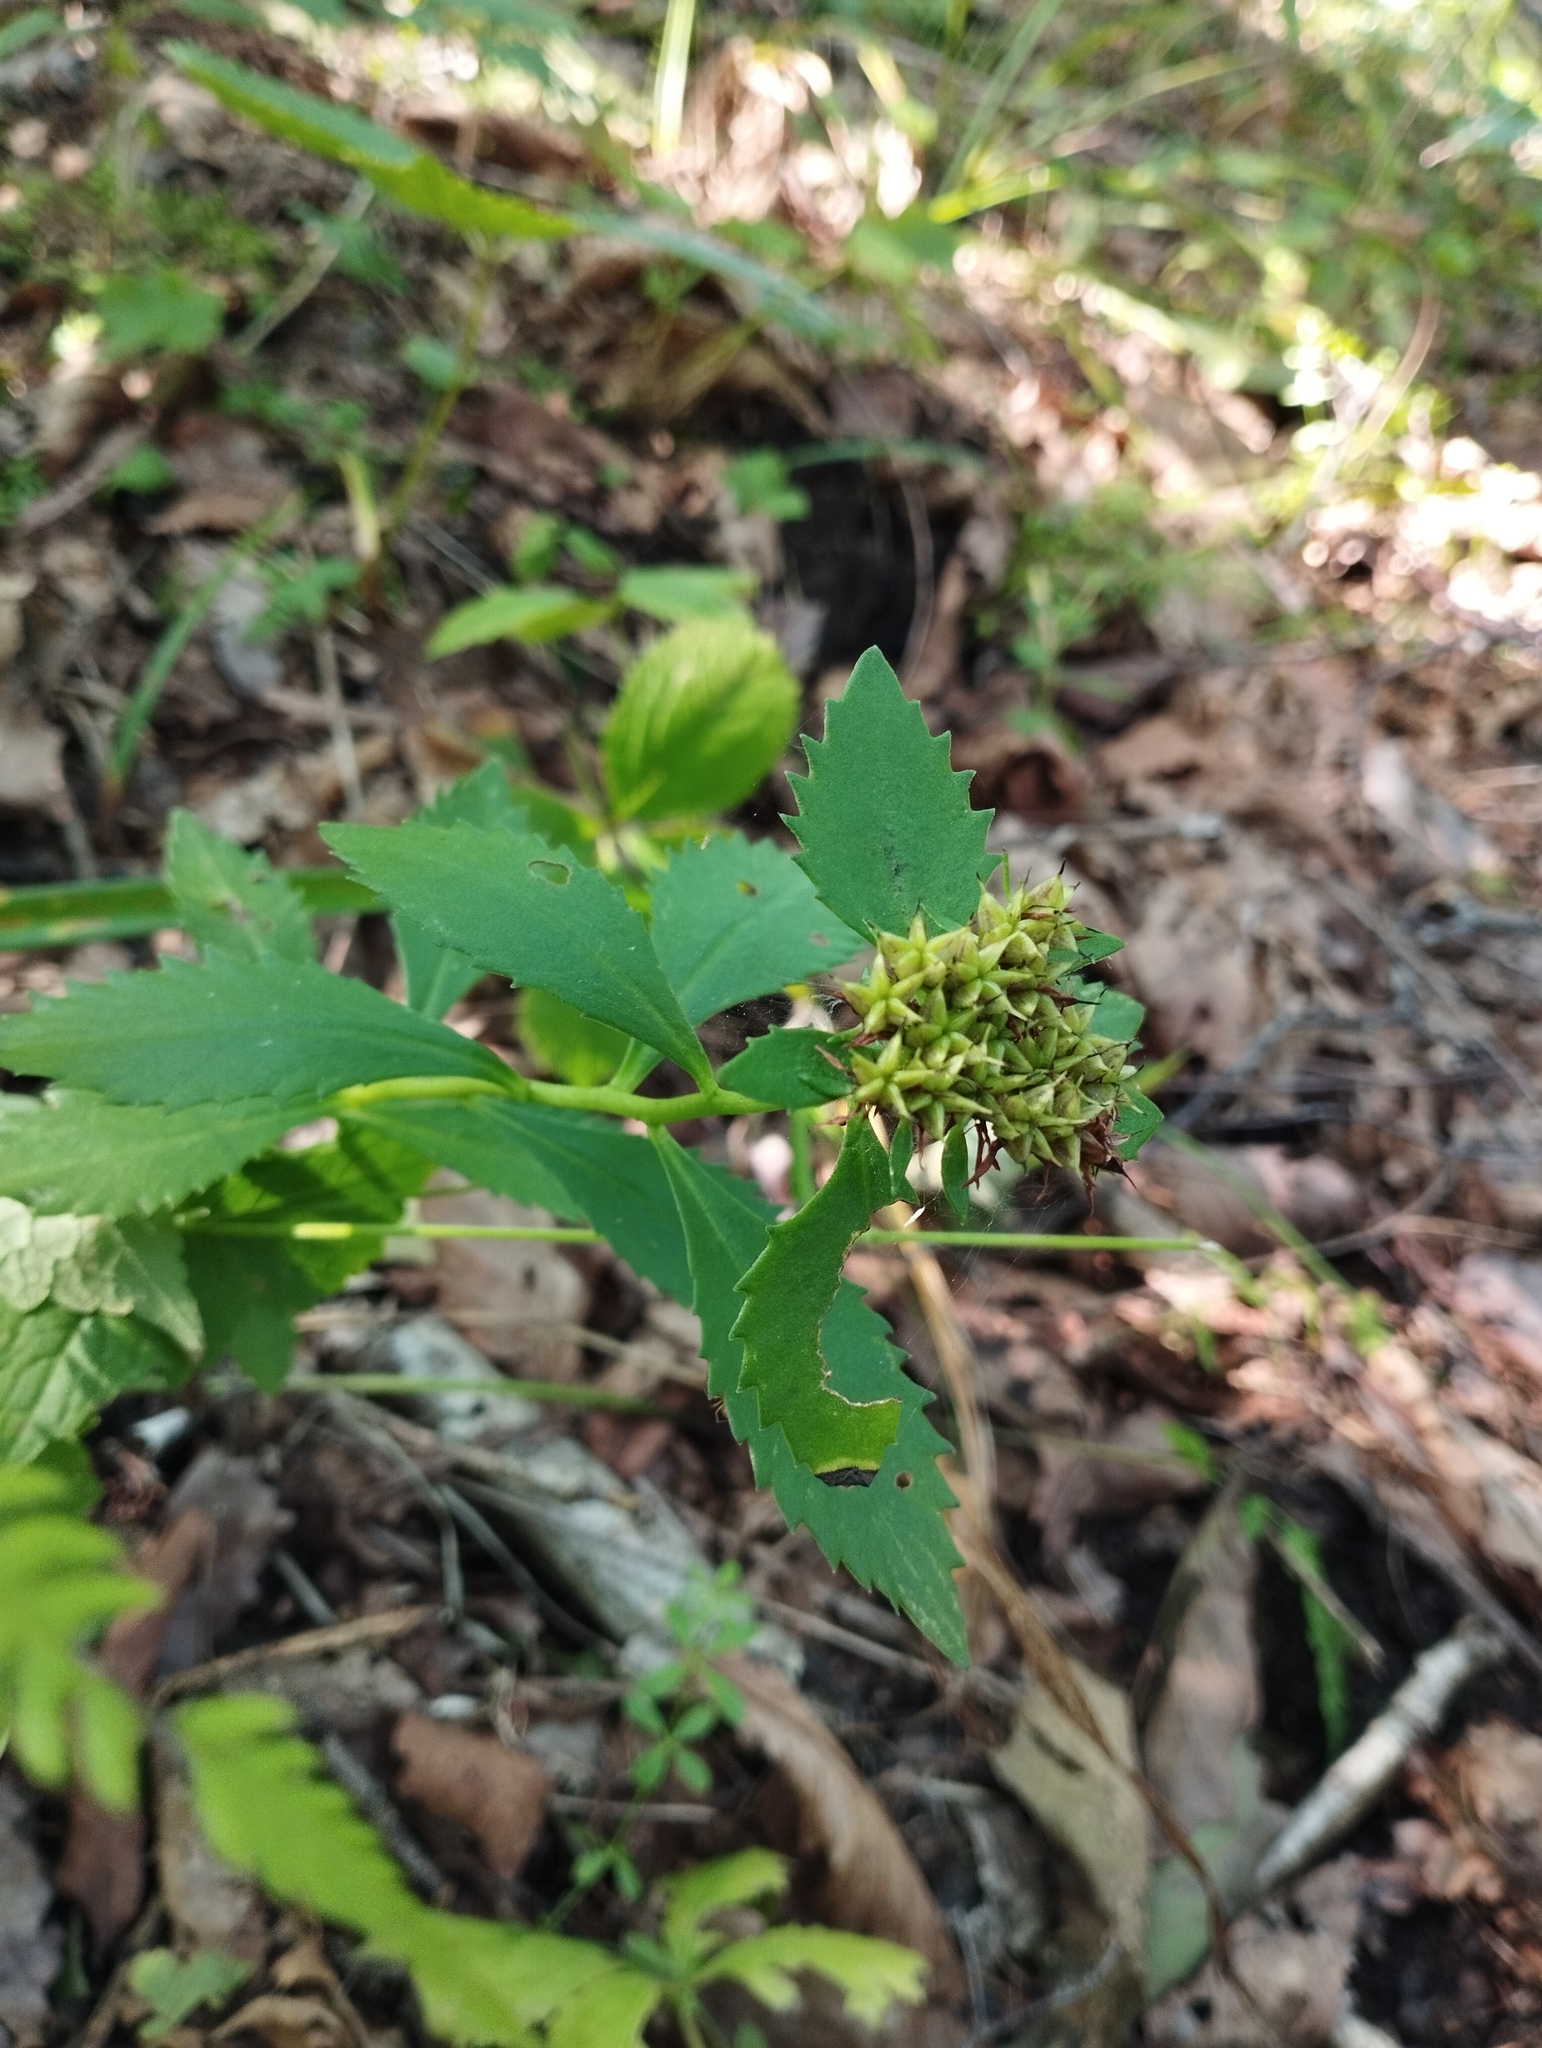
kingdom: Plantae
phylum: Tracheophyta
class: Magnoliopsida
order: Saxifragales
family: Crassulaceae
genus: Phedimus
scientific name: Phedimus aizoon
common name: Orpin aizoon
